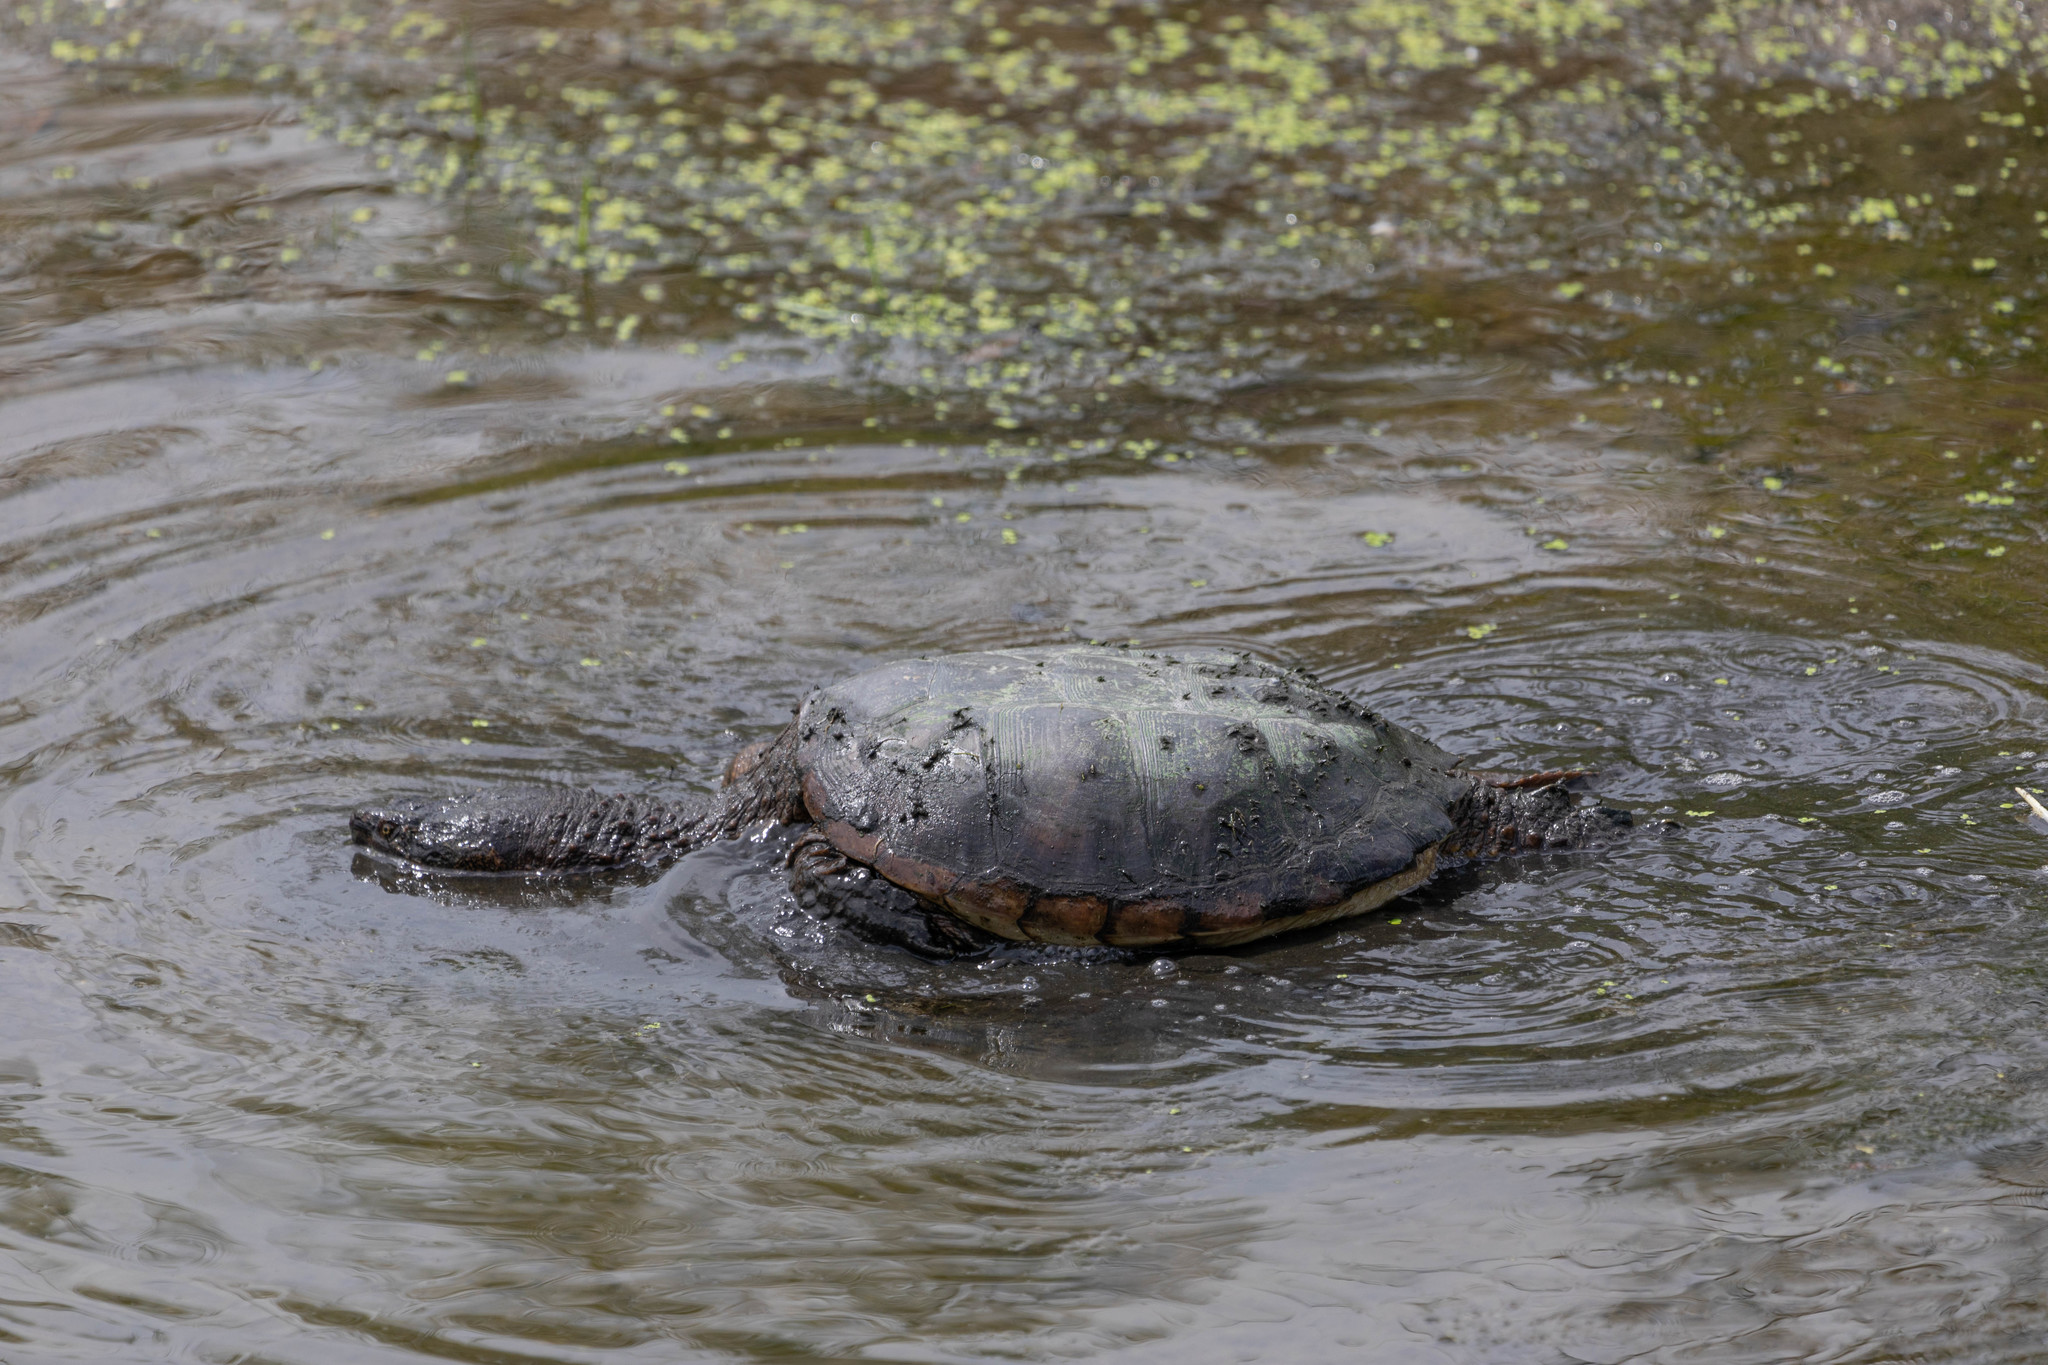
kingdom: Animalia
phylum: Chordata
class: Testudines
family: Chelydridae
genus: Chelydra
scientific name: Chelydra serpentina
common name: Common snapping turtle
